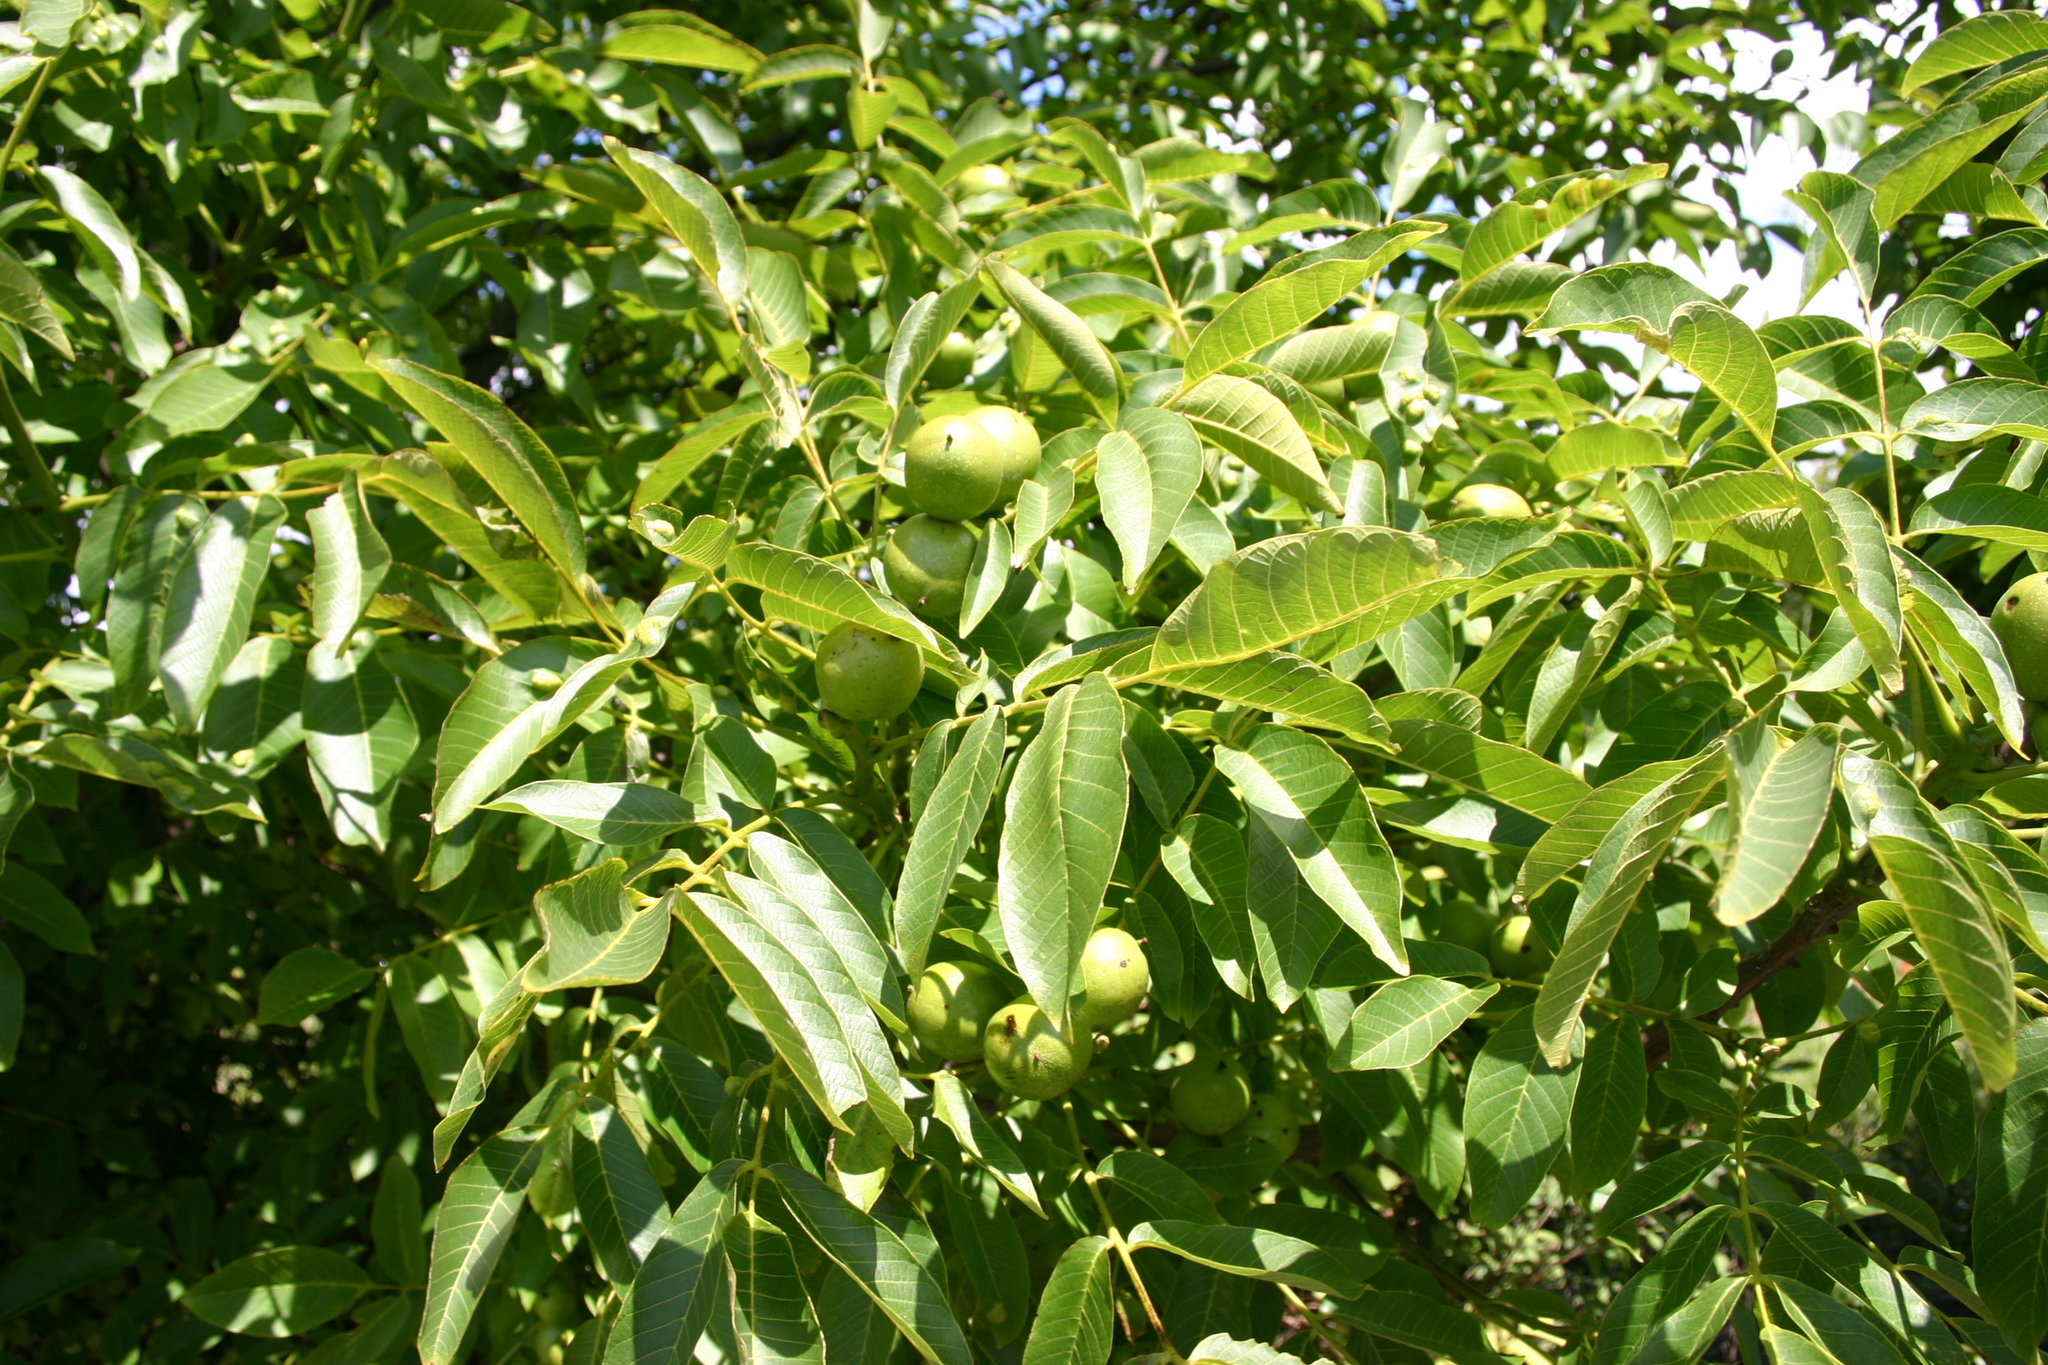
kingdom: Plantae
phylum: Tracheophyta
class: Magnoliopsida
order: Fagales
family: Juglandaceae
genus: Juglans
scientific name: Juglans regia
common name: Walnut
